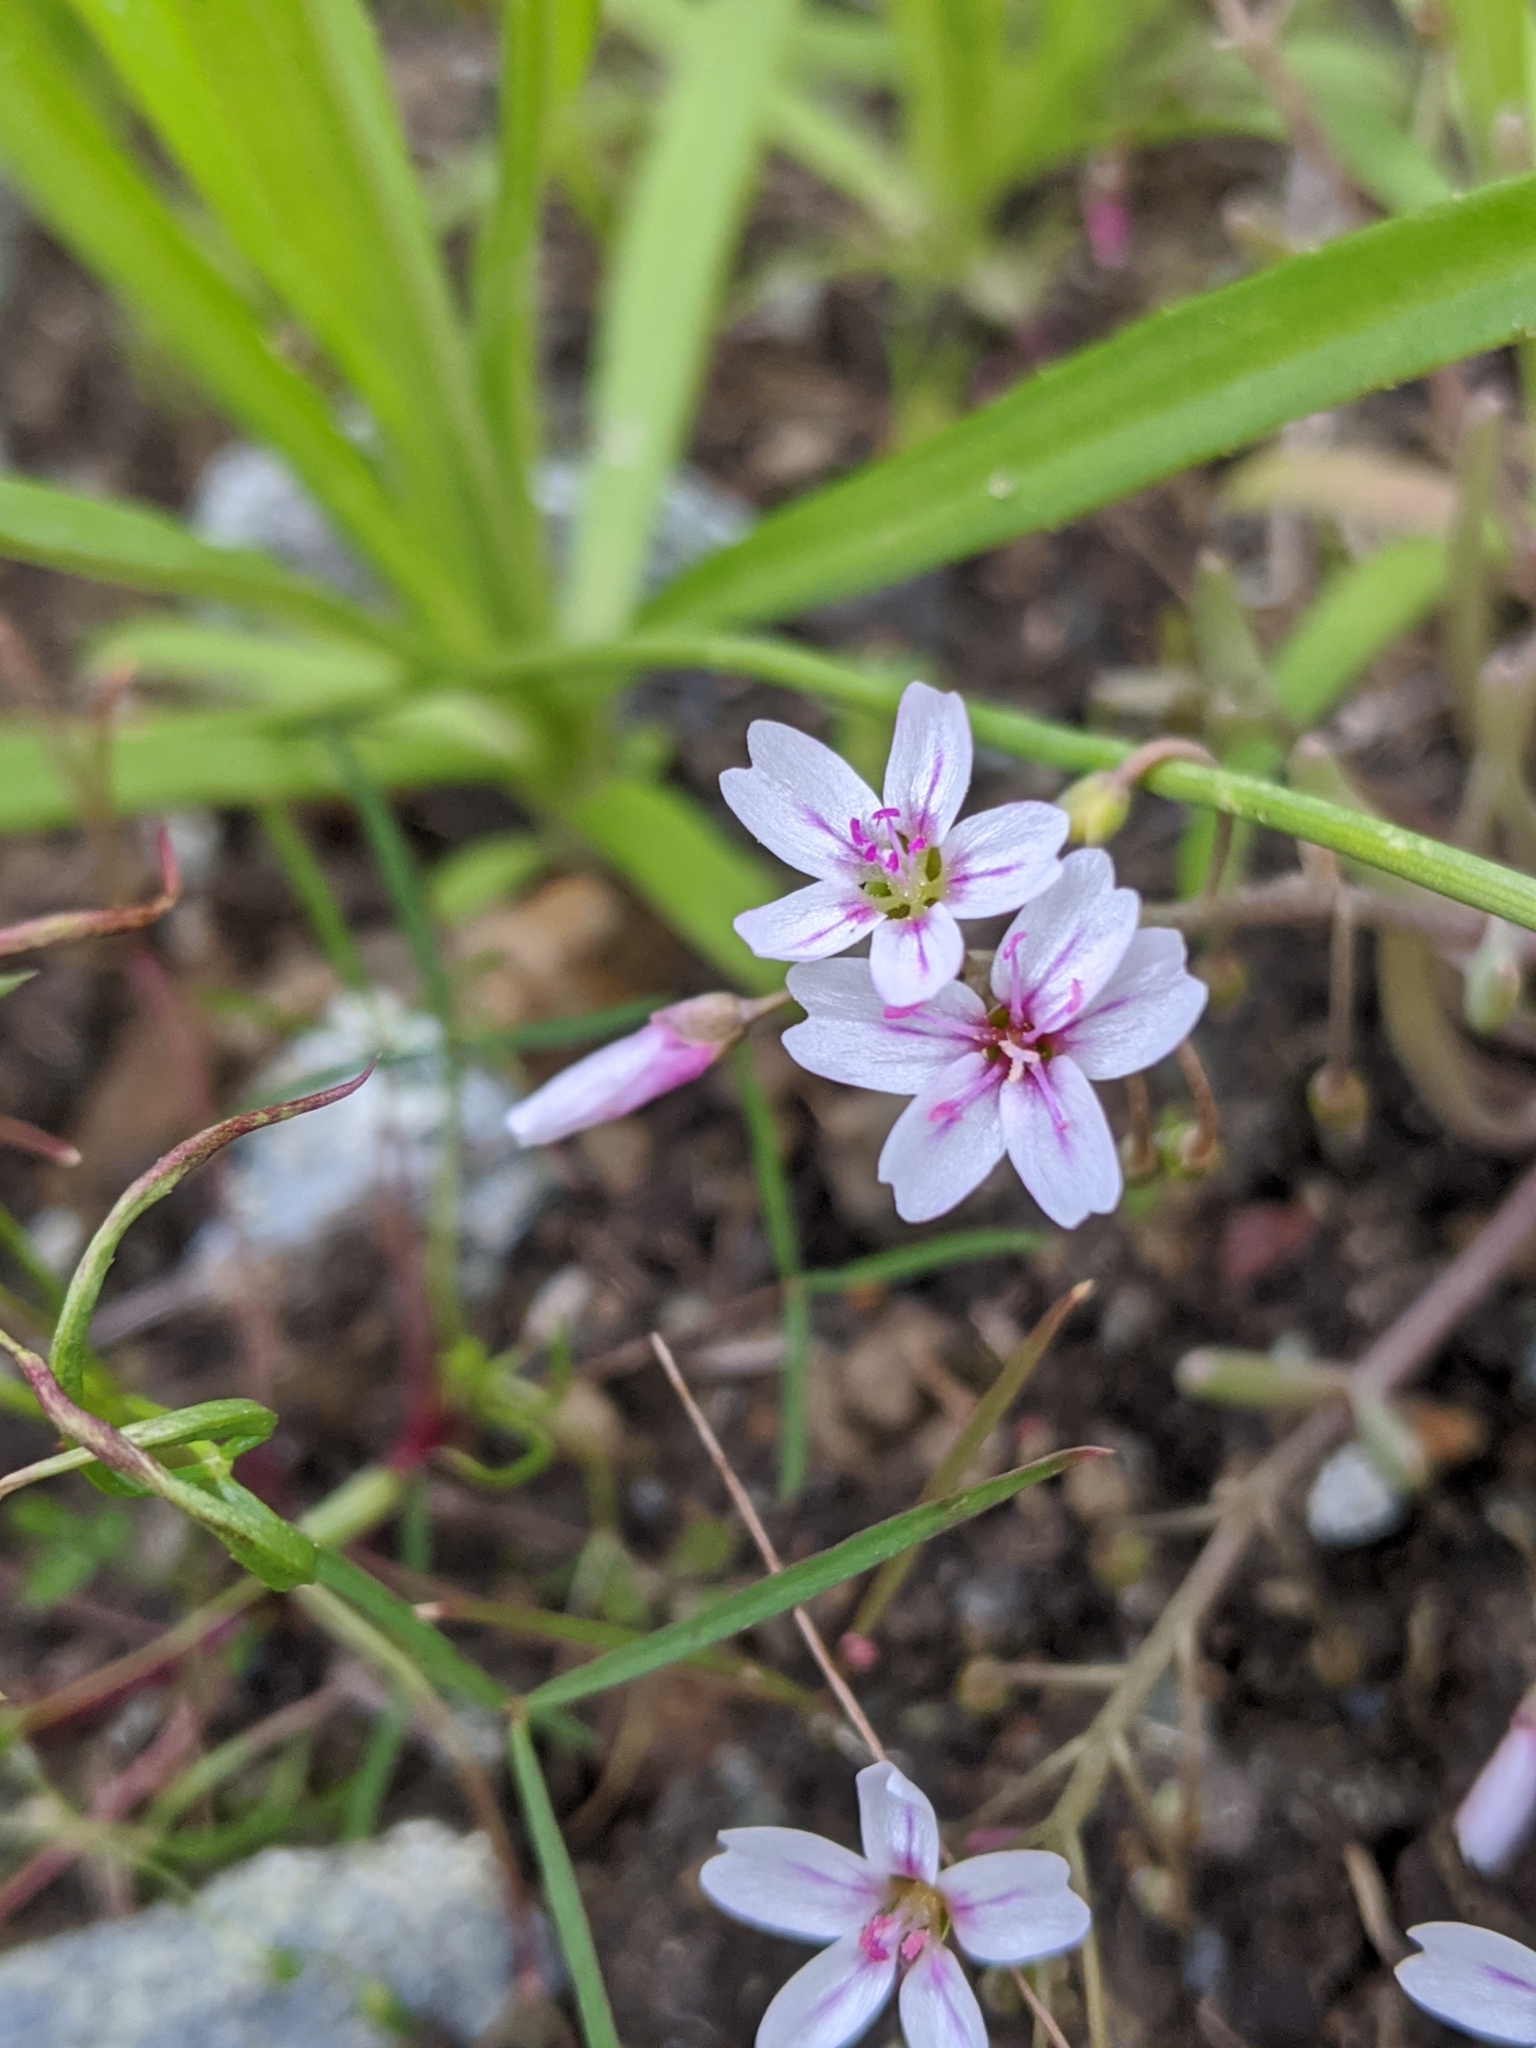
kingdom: Plantae
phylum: Tracheophyta
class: Magnoliopsida
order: Caryophyllales
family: Montiaceae
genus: Claytonia
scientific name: Claytonia exigua
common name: Pale spring beauty
